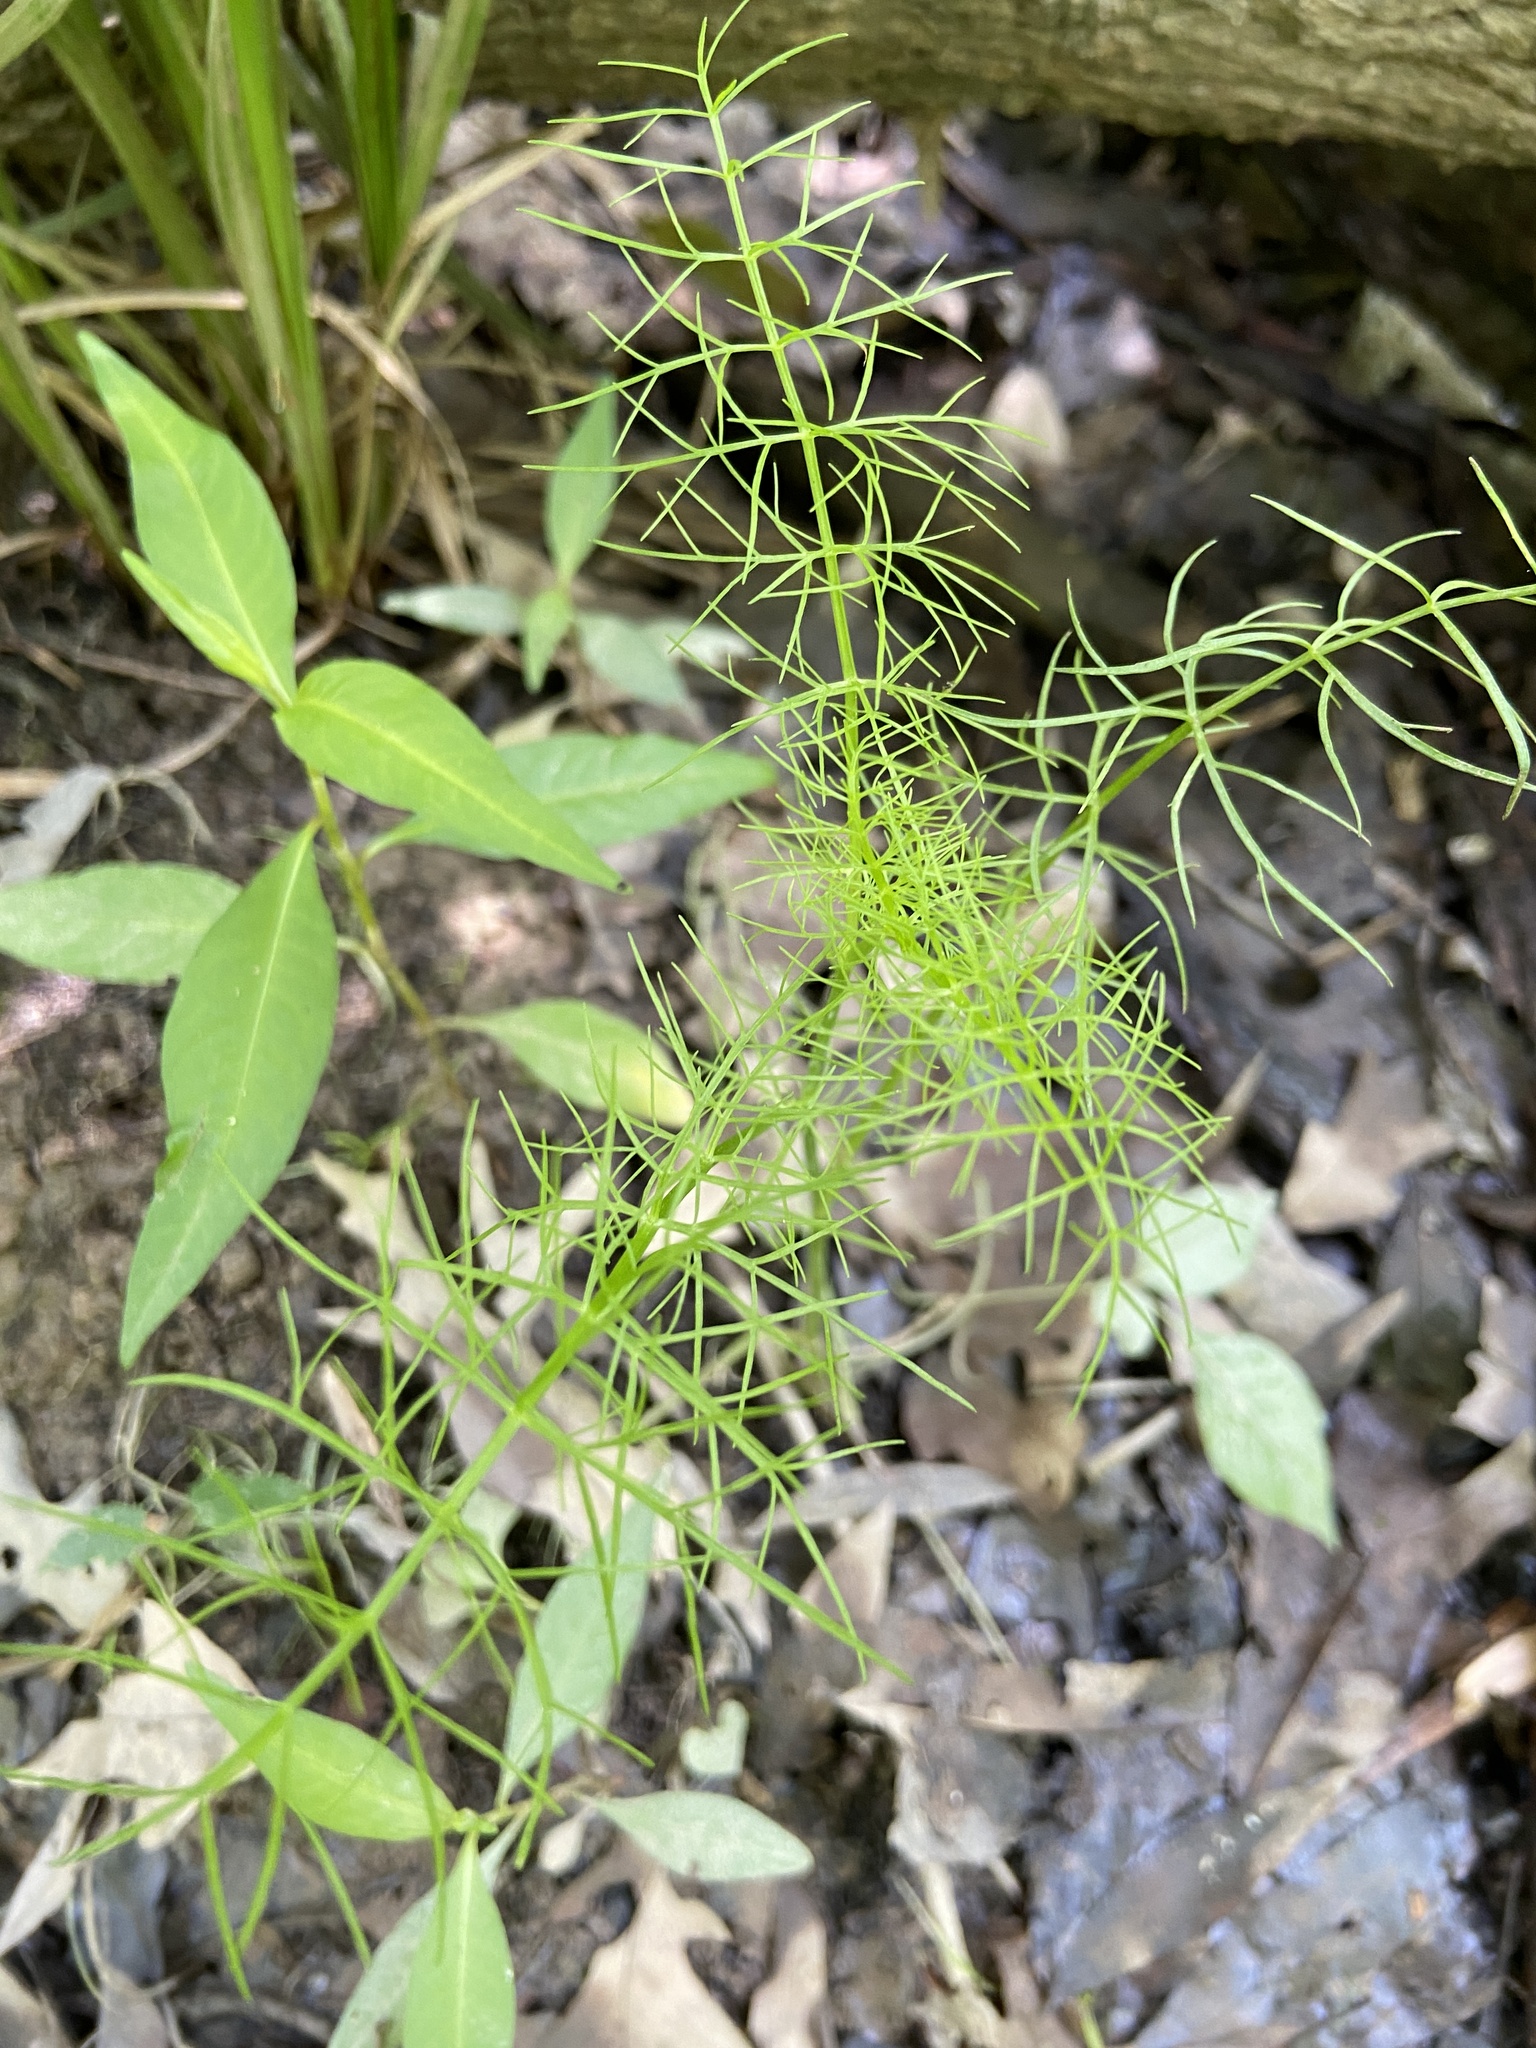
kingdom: Plantae
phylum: Tracheophyta
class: Magnoliopsida
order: Apiales
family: Apiaceae
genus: Ptilimnium
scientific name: Ptilimnium capillaceum
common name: Herbwilliam
